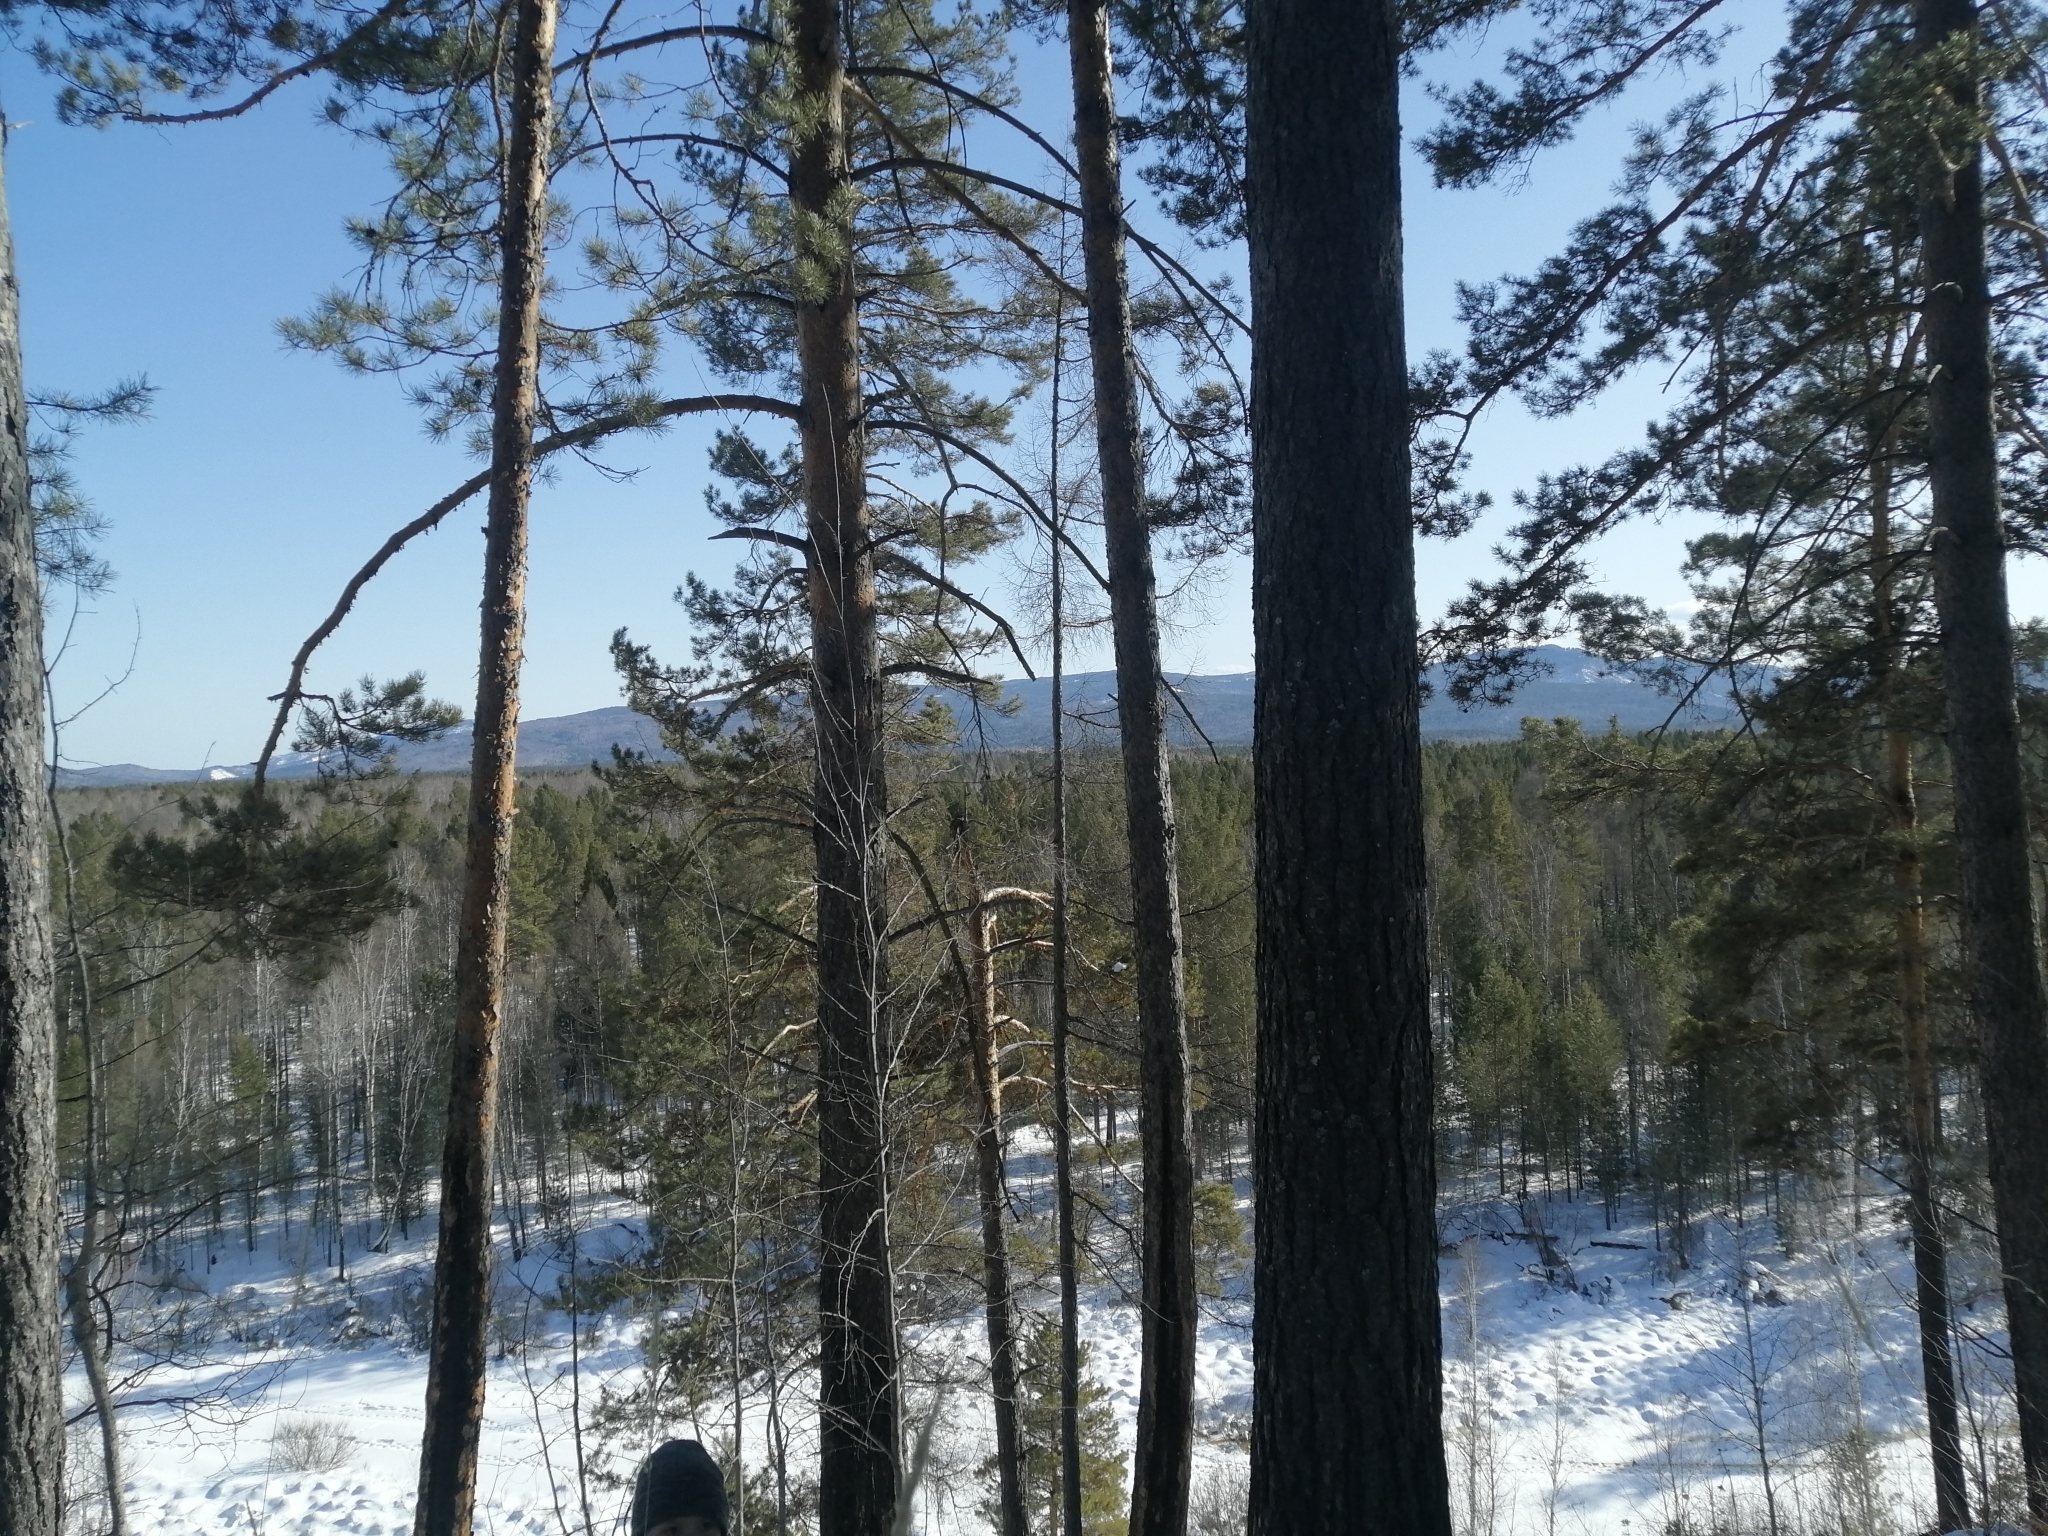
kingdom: Plantae
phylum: Tracheophyta
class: Pinopsida
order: Pinales
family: Pinaceae
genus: Pinus
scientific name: Pinus sylvestris
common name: Scots pine
